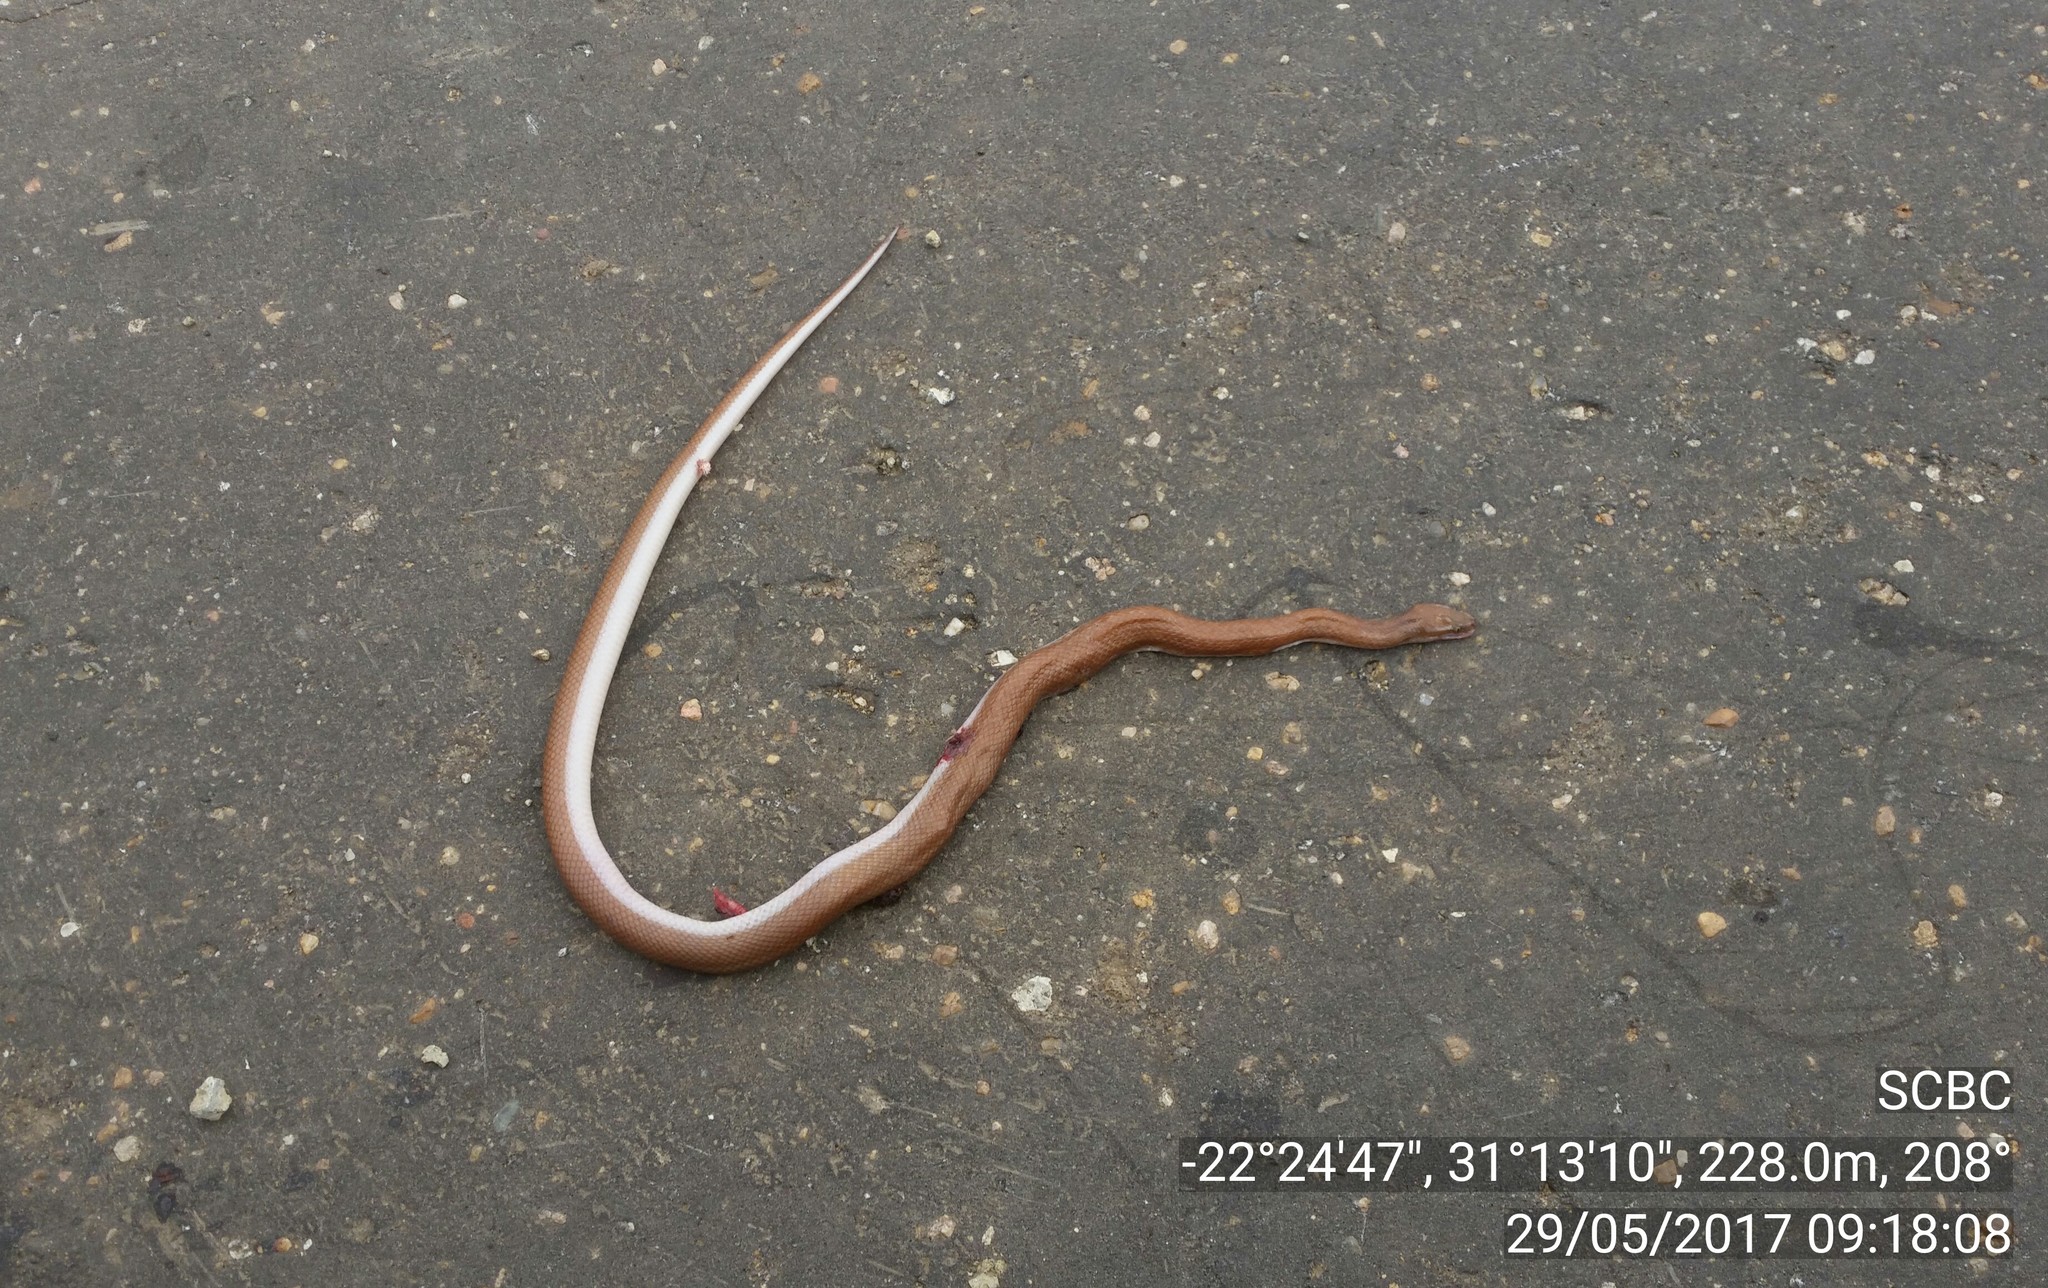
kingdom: Animalia
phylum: Chordata
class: Squamata
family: Lamprophiidae
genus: Boaedon
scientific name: Boaedon capensis
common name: Brown house snake
